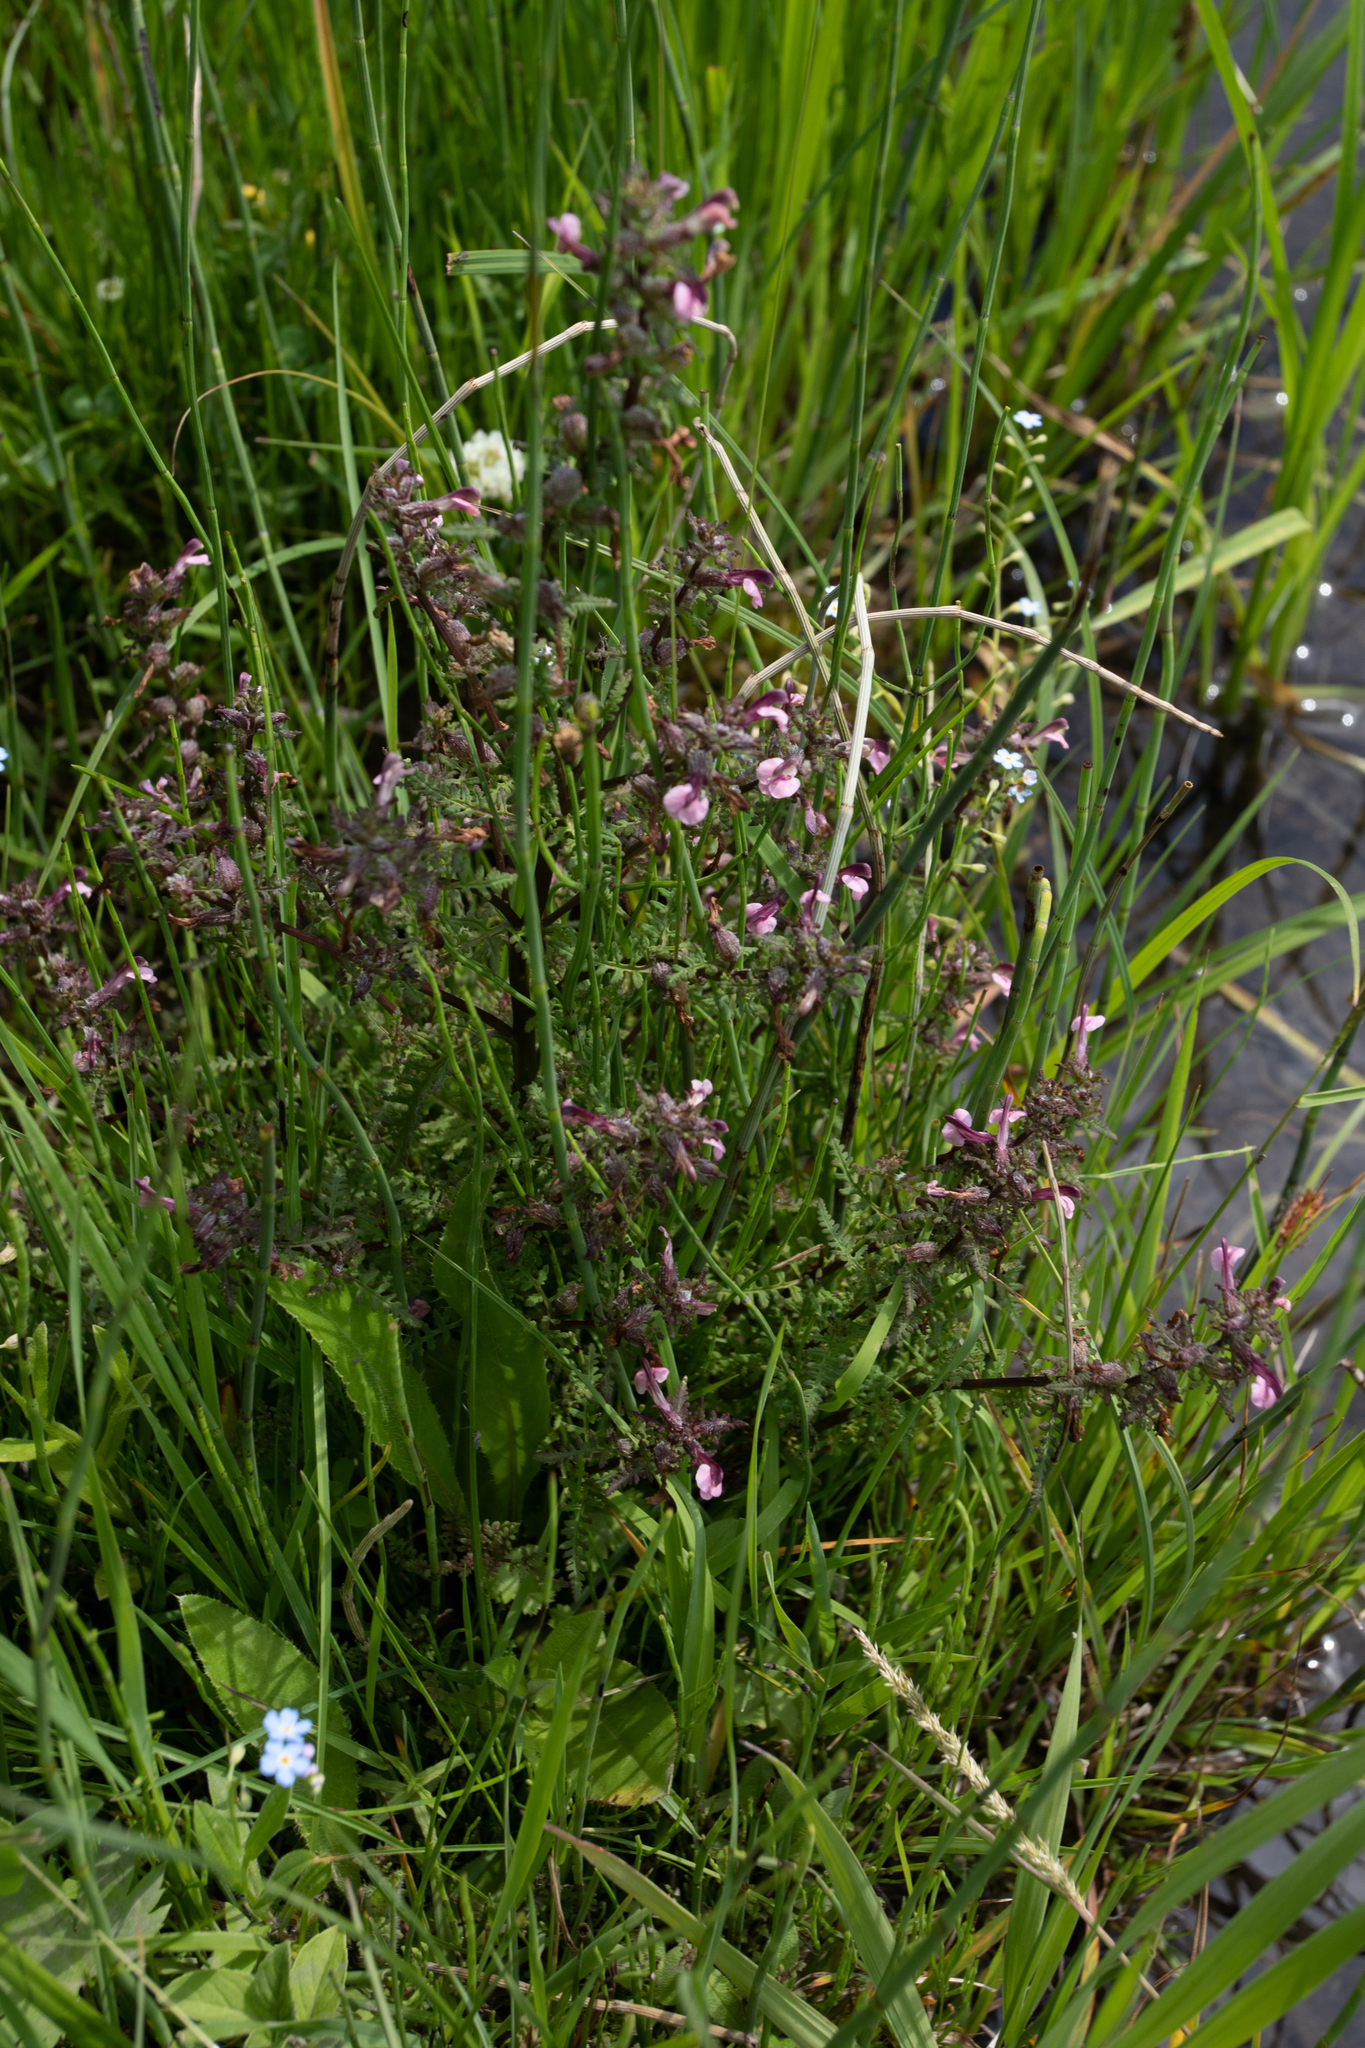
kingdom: Plantae
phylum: Tracheophyta
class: Magnoliopsida
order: Lamiales
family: Orobanchaceae
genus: Pedicularis
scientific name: Pedicularis karoi
